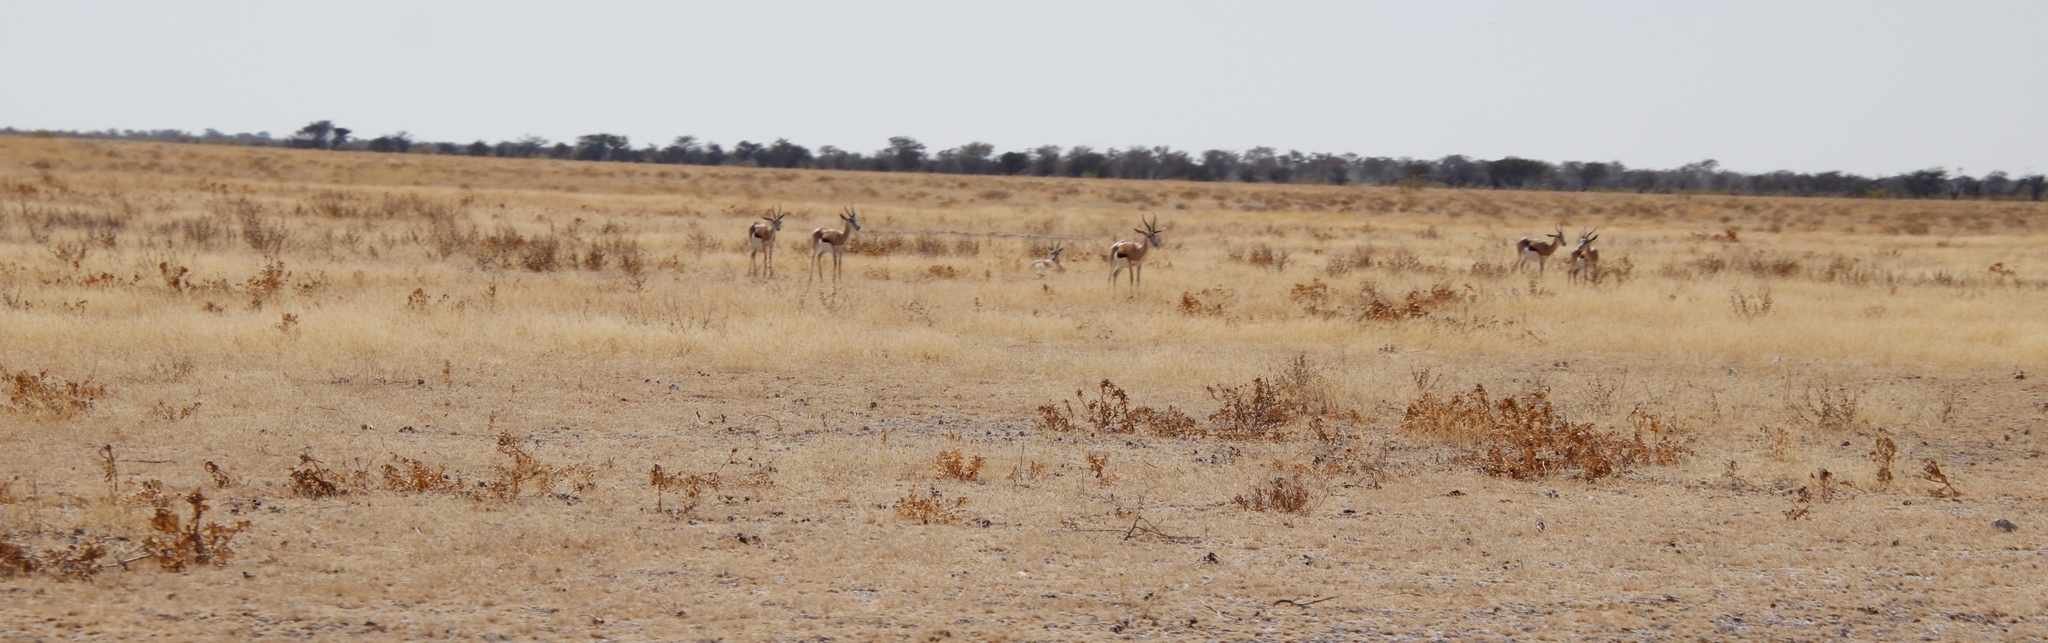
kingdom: Animalia
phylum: Chordata
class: Mammalia
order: Artiodactyla
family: Bovidae
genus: Antidorcas
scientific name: Antidorcas marsupialis
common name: Springbok
